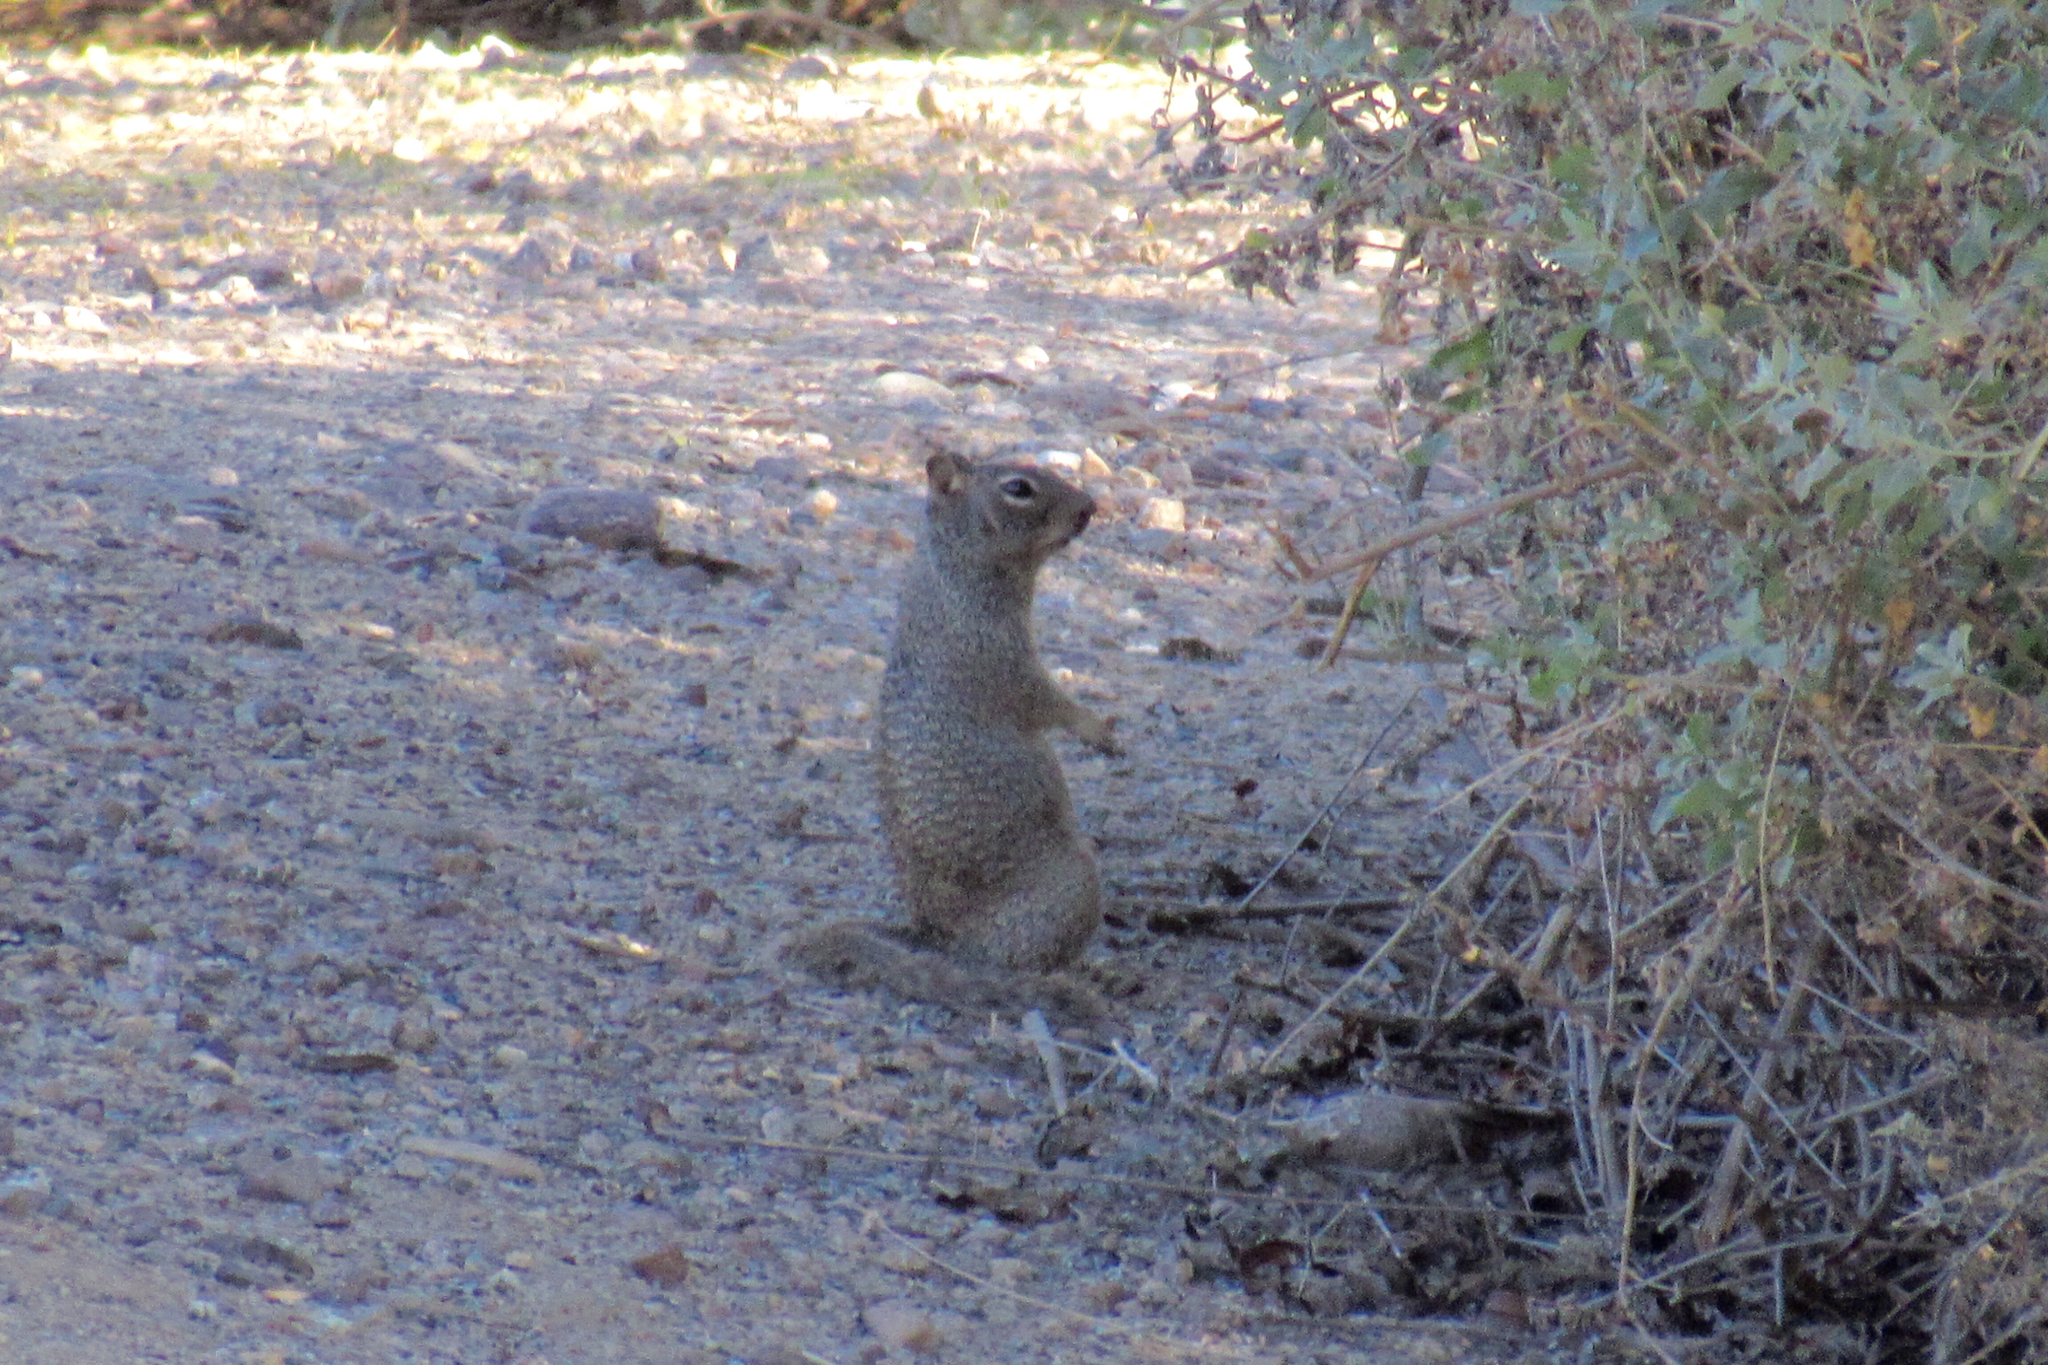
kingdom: Animalia
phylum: Chordata
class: Mammalia
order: Rodentia
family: Sciuridae
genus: Otospermophilus
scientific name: Otospermophilus variegatus
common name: Rock squirrel
